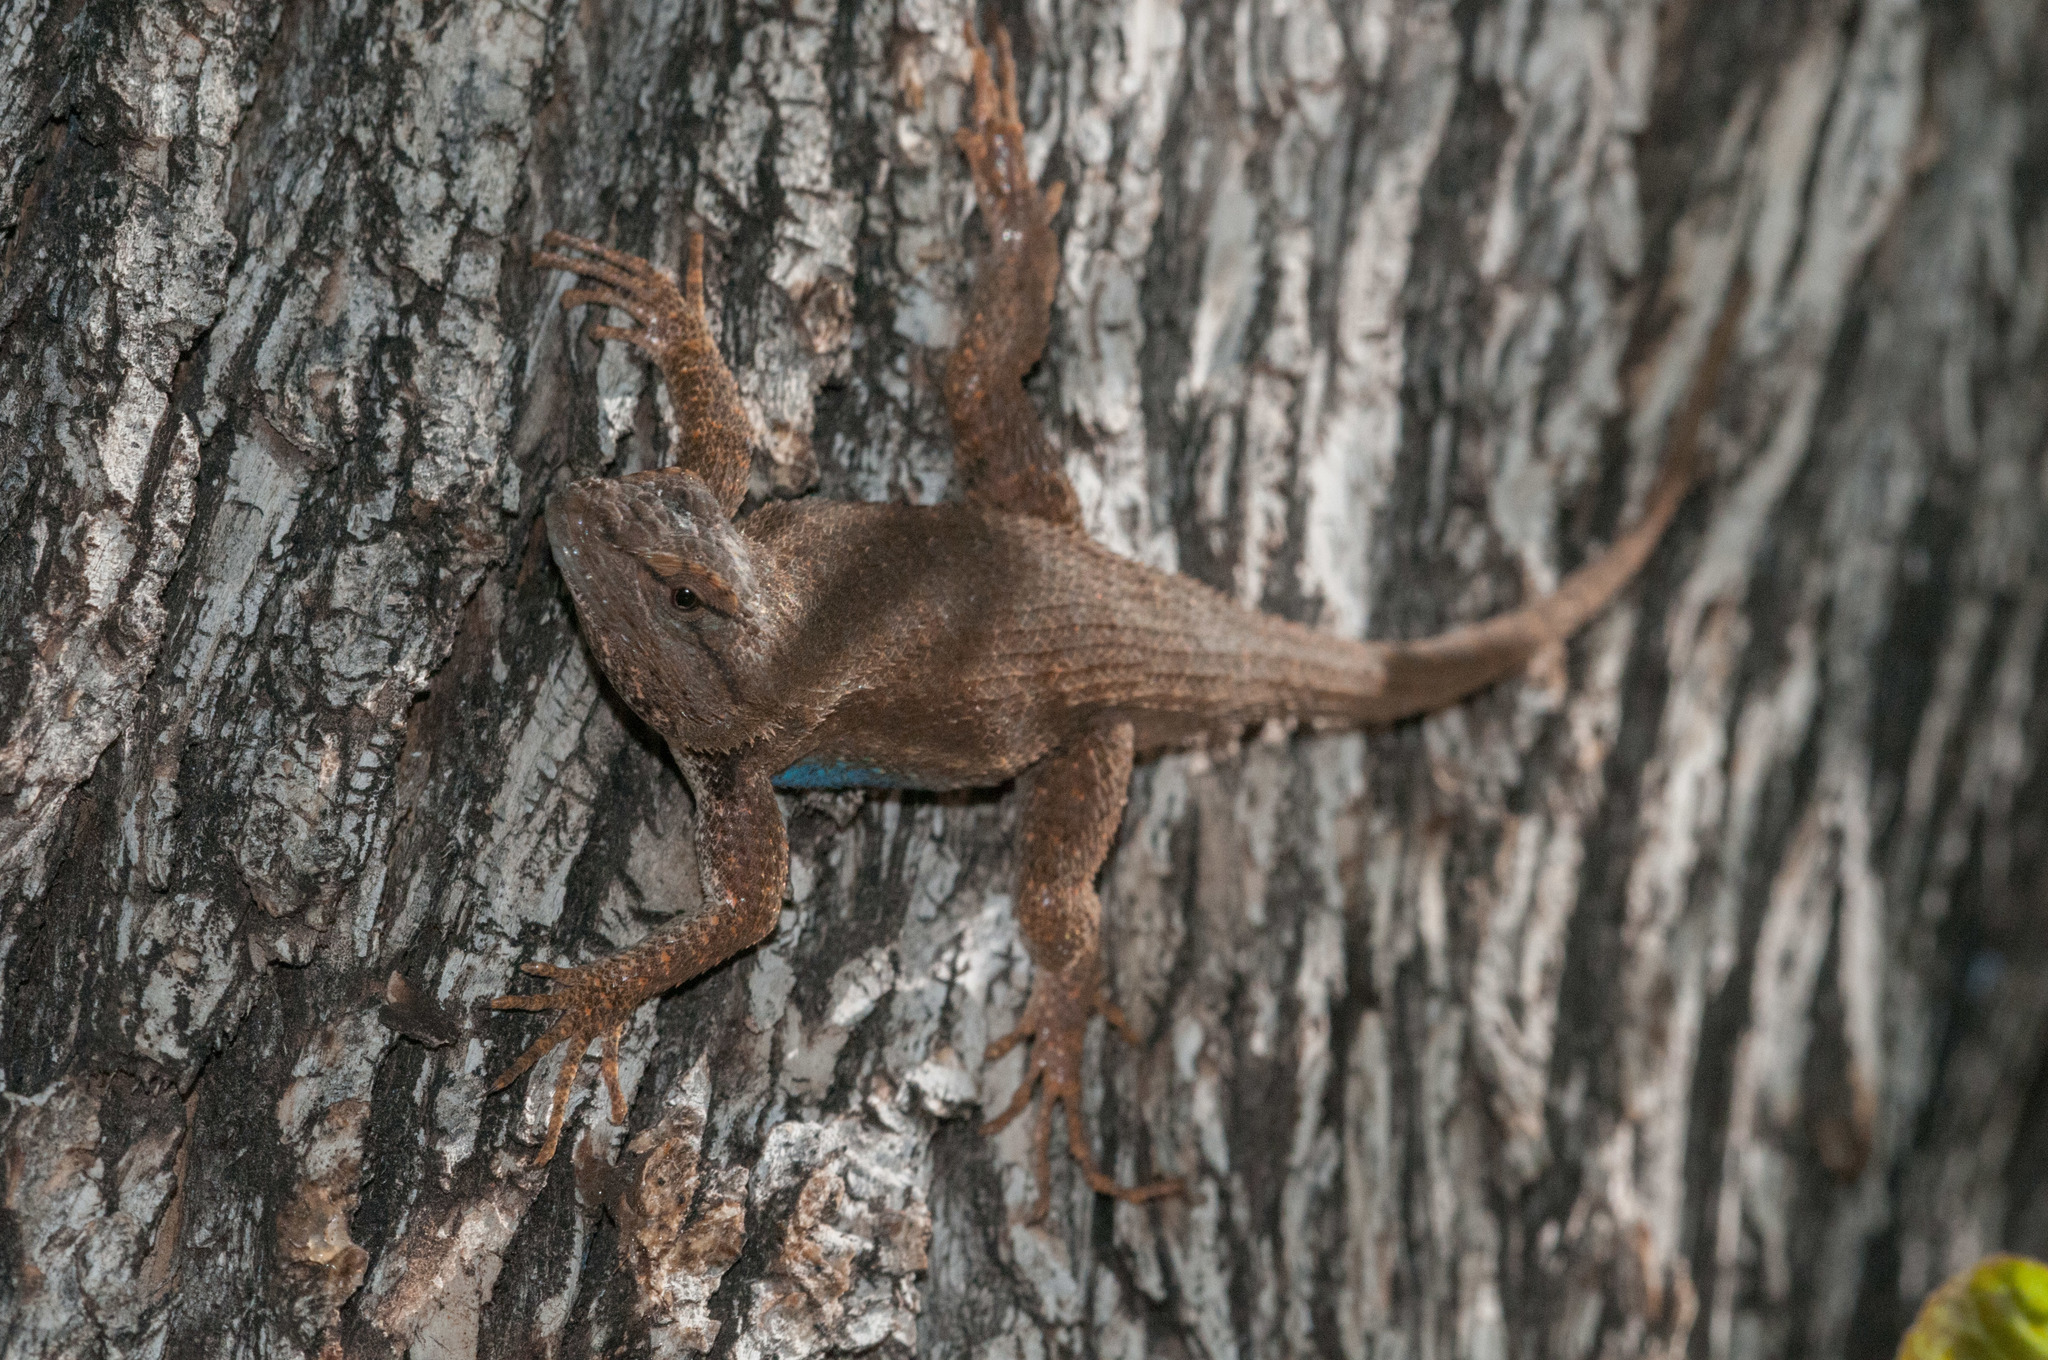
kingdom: Animalia
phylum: Chordata
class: Squamata
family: Phrynosomatidae
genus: Sceloporus
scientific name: Sceloporus tristichus
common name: Plateau fence lizard
